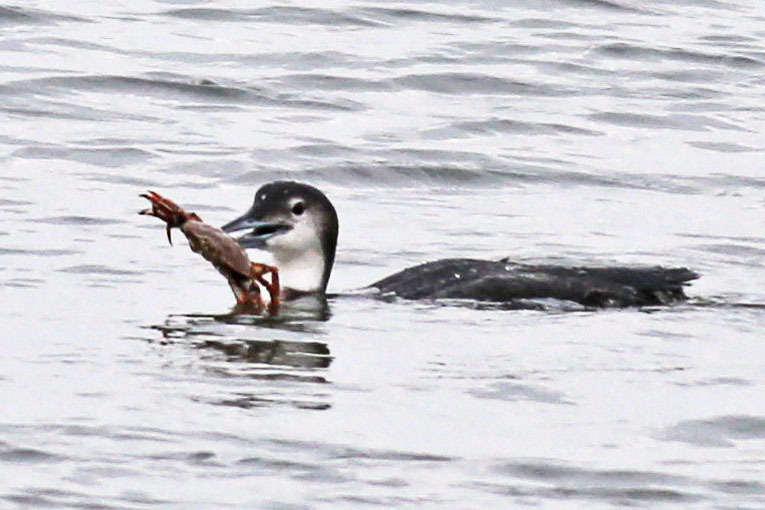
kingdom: Animalia
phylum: Chordata
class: Aves
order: Gaviiformes
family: Gaviidae
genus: Gavia
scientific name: Gavia immer
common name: Common loon
